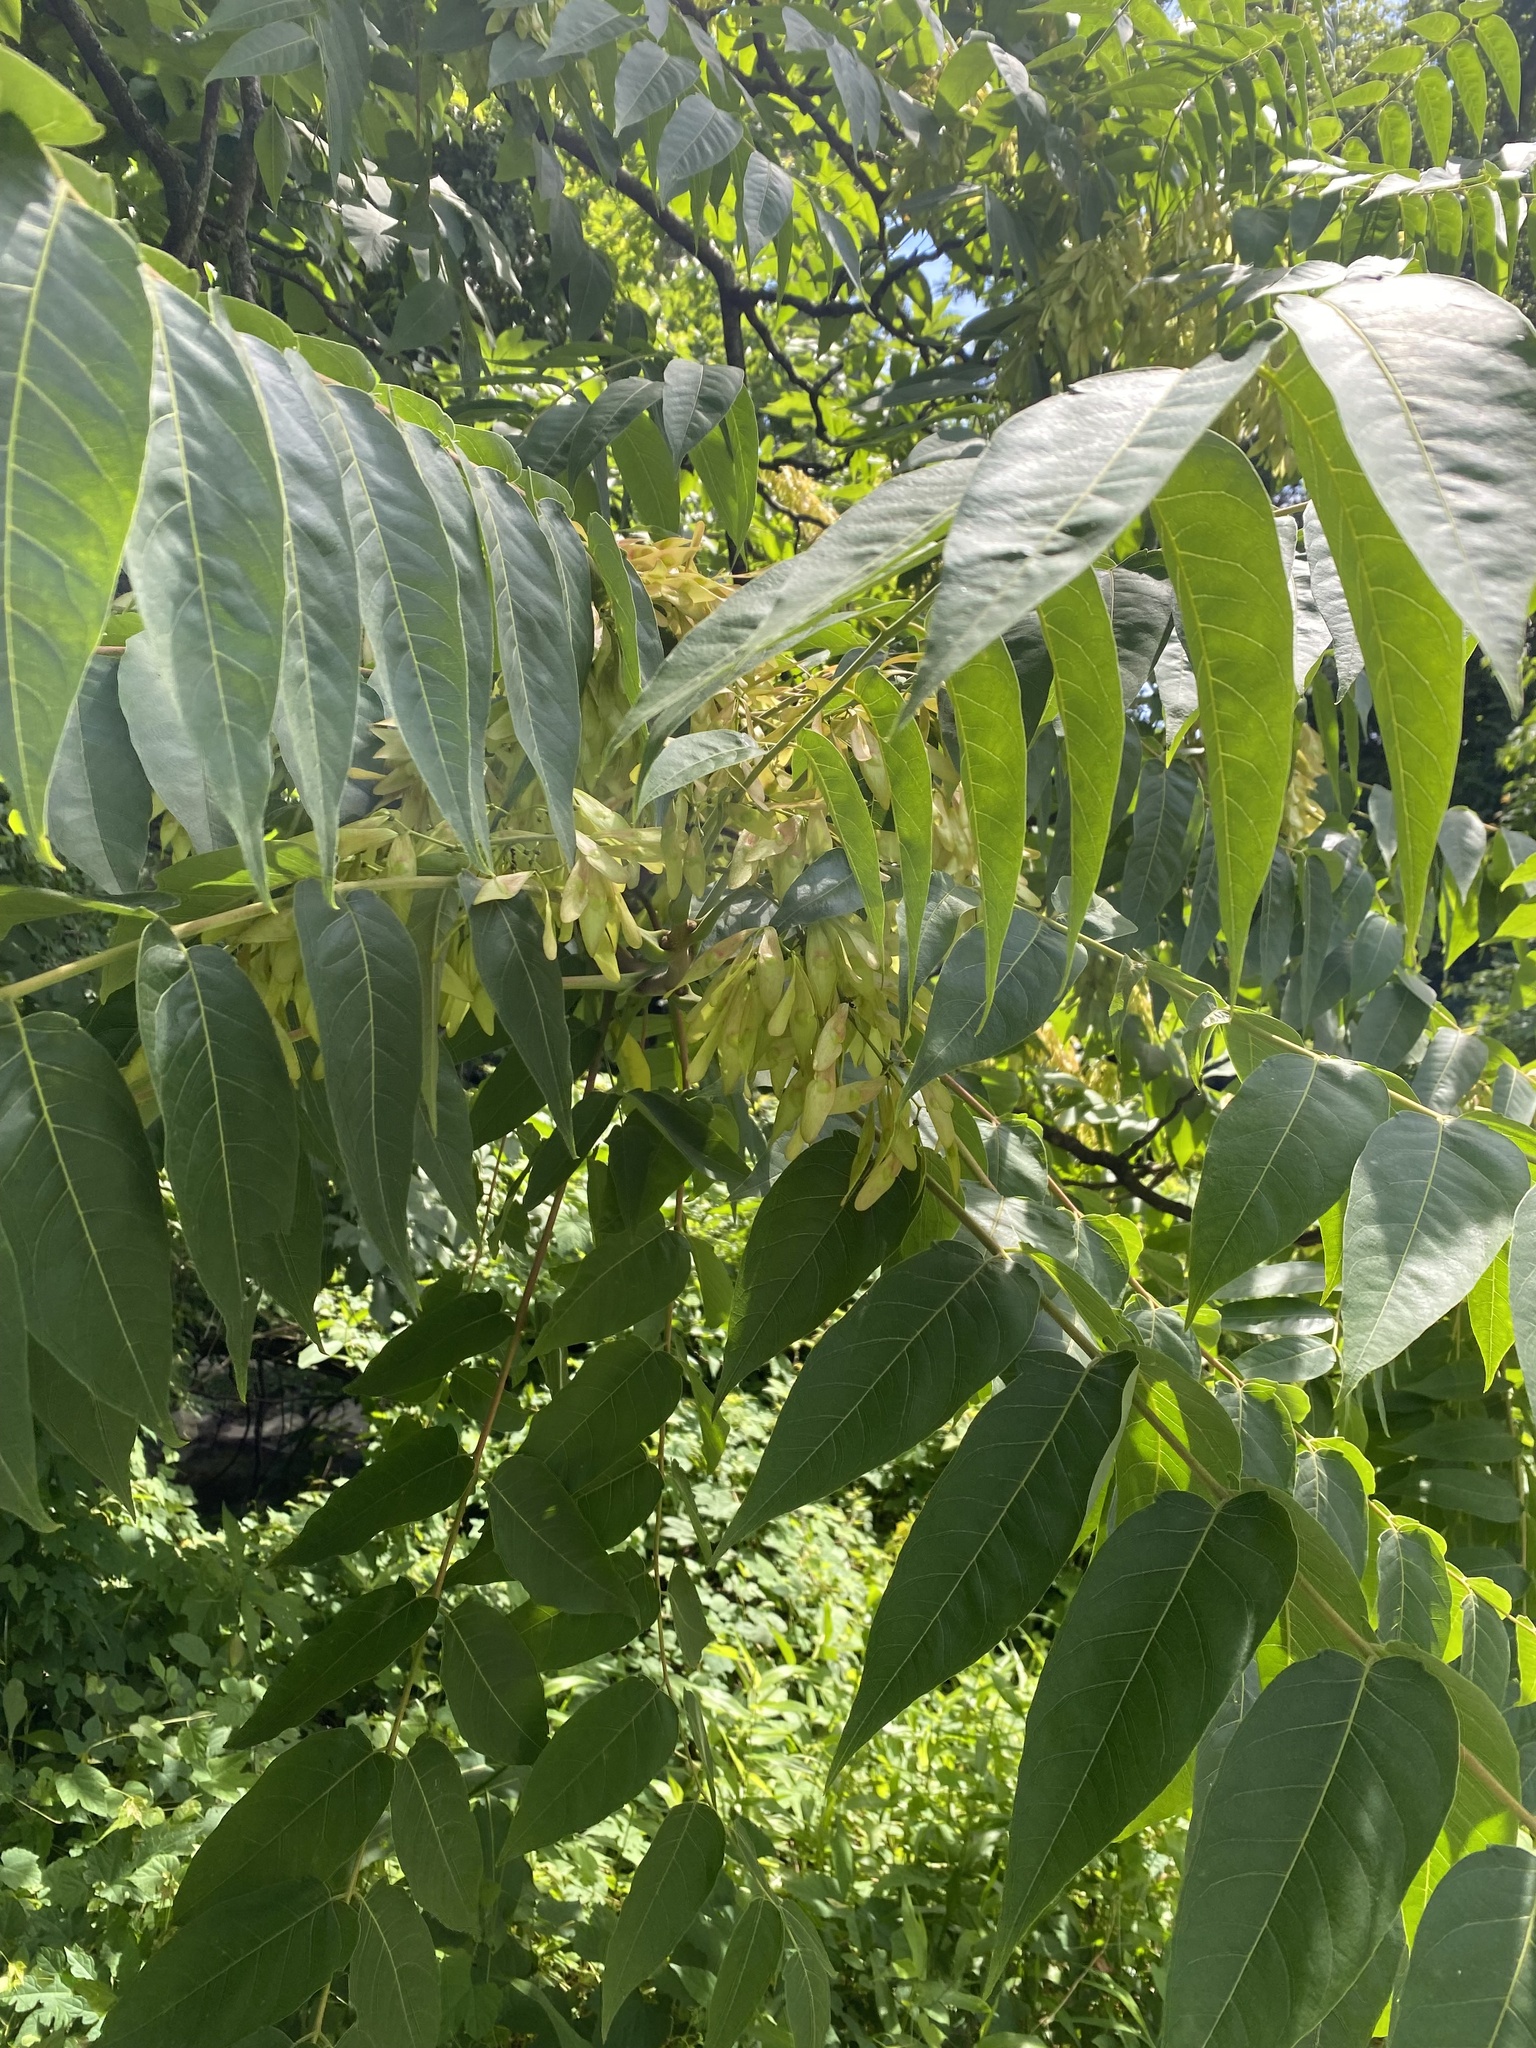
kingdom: Plantae
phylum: Tracheophyta
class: Magnoliopsida
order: Sapindales
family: Simaroubaceae
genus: Ailanthus
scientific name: Ailanthus altissima
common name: Tree-of-heaven
